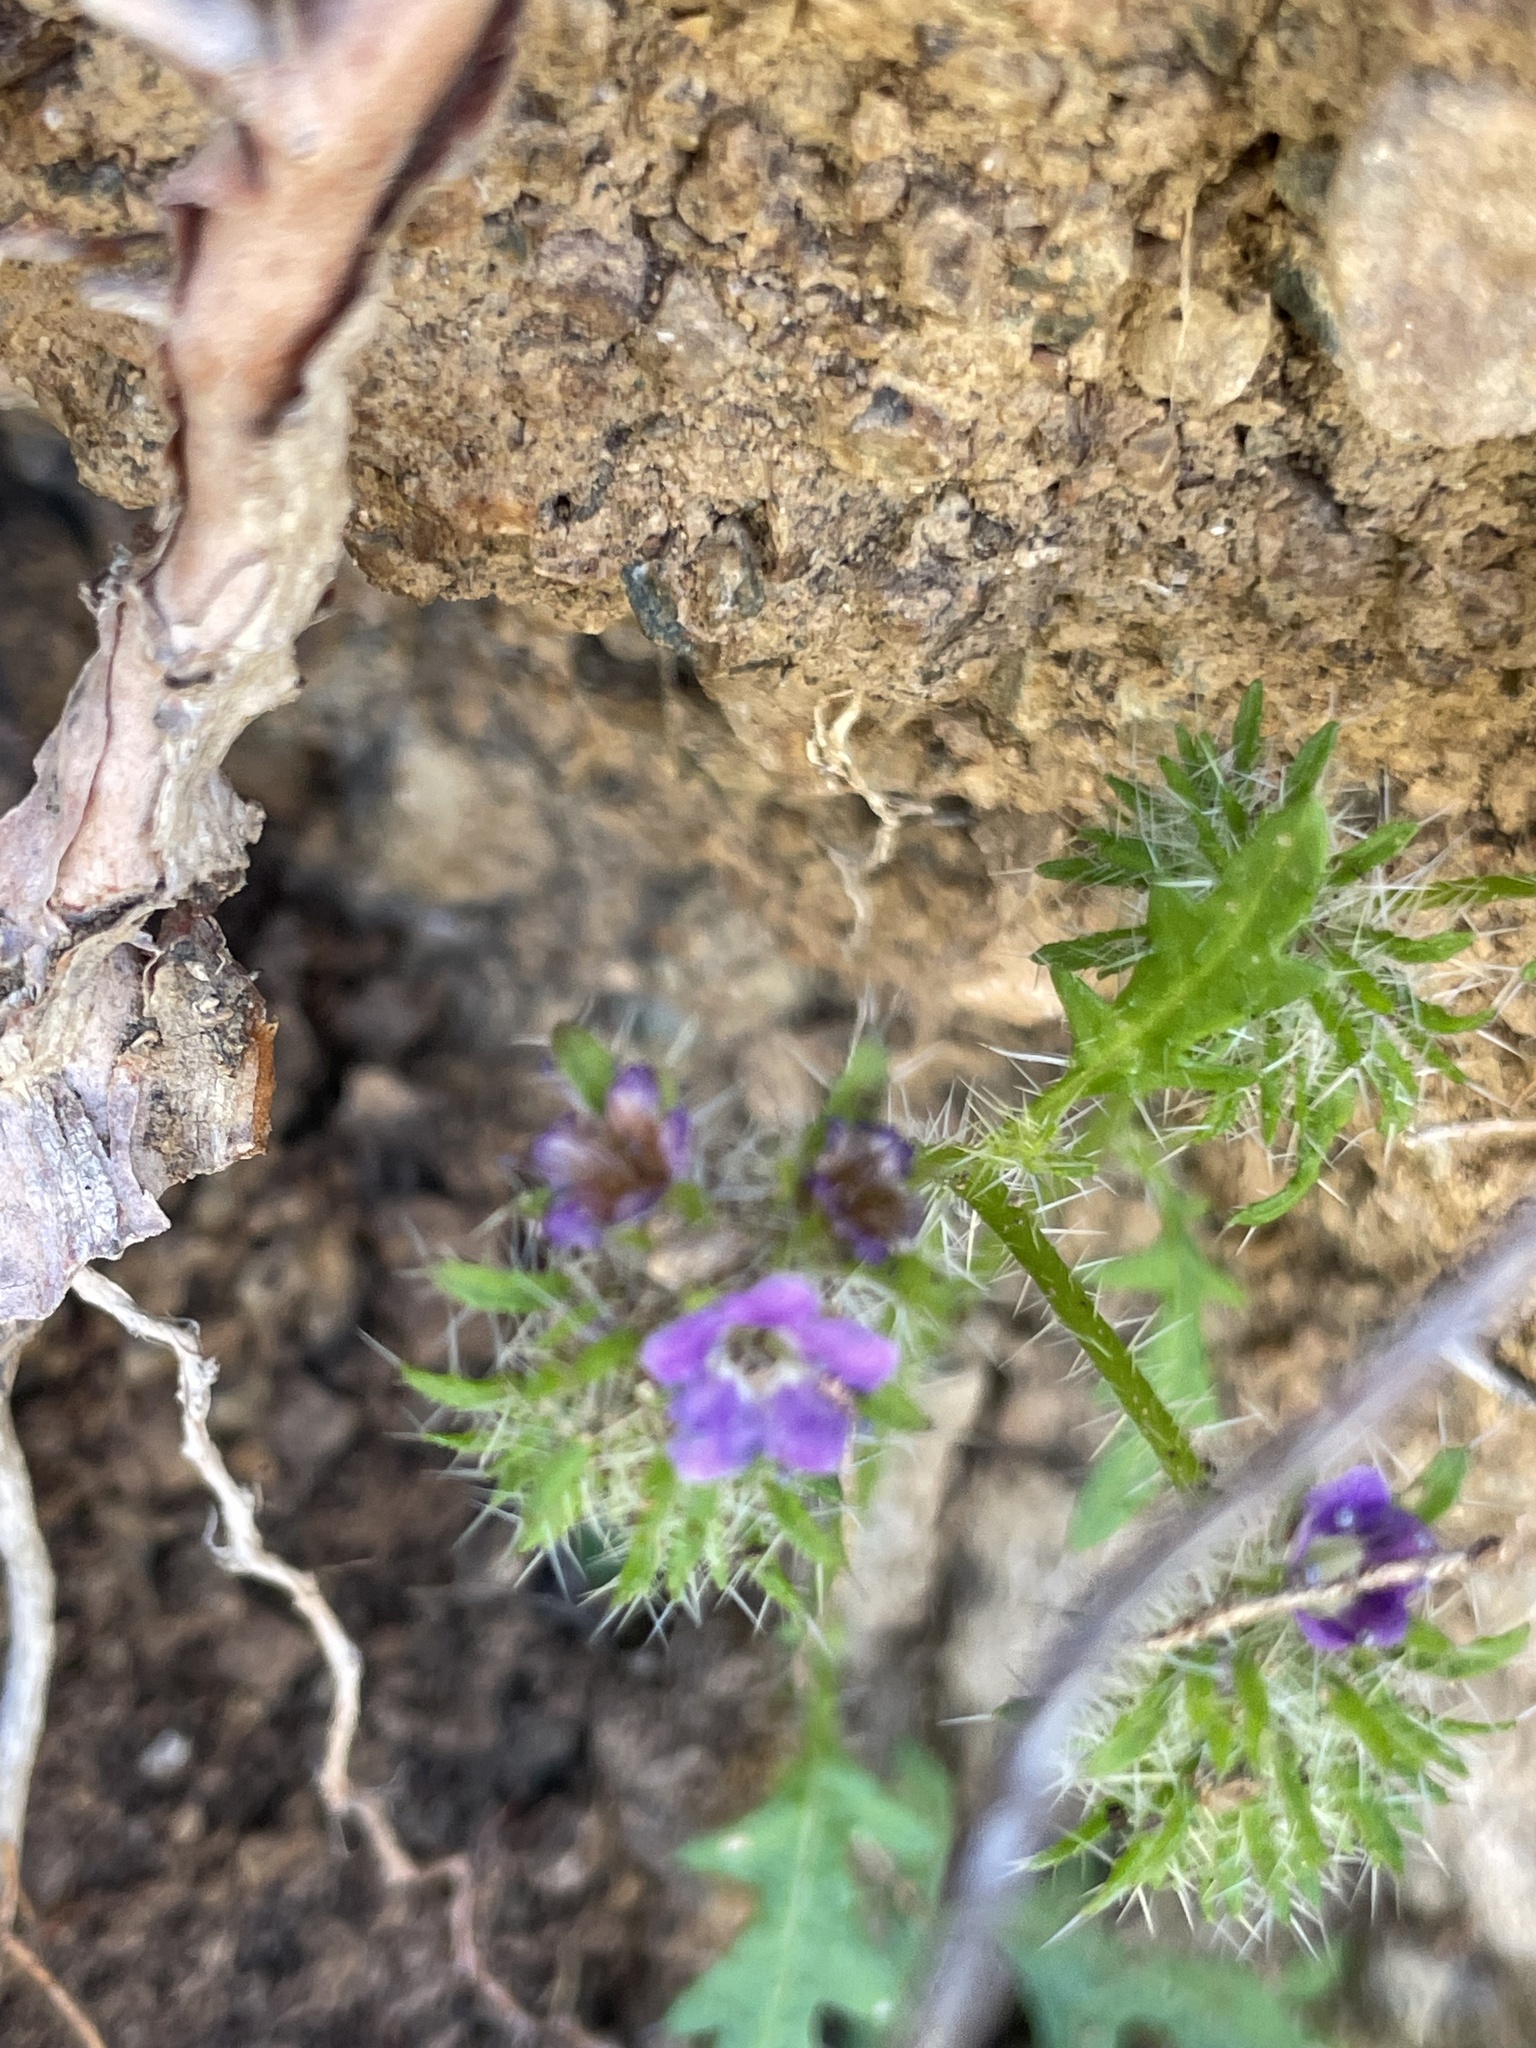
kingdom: Plantae
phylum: Tracheophyta
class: Magnoliopsida
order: Boraginales
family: Hydrophyllaceae
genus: Phacelia
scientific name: Phacelia cedrosensis
